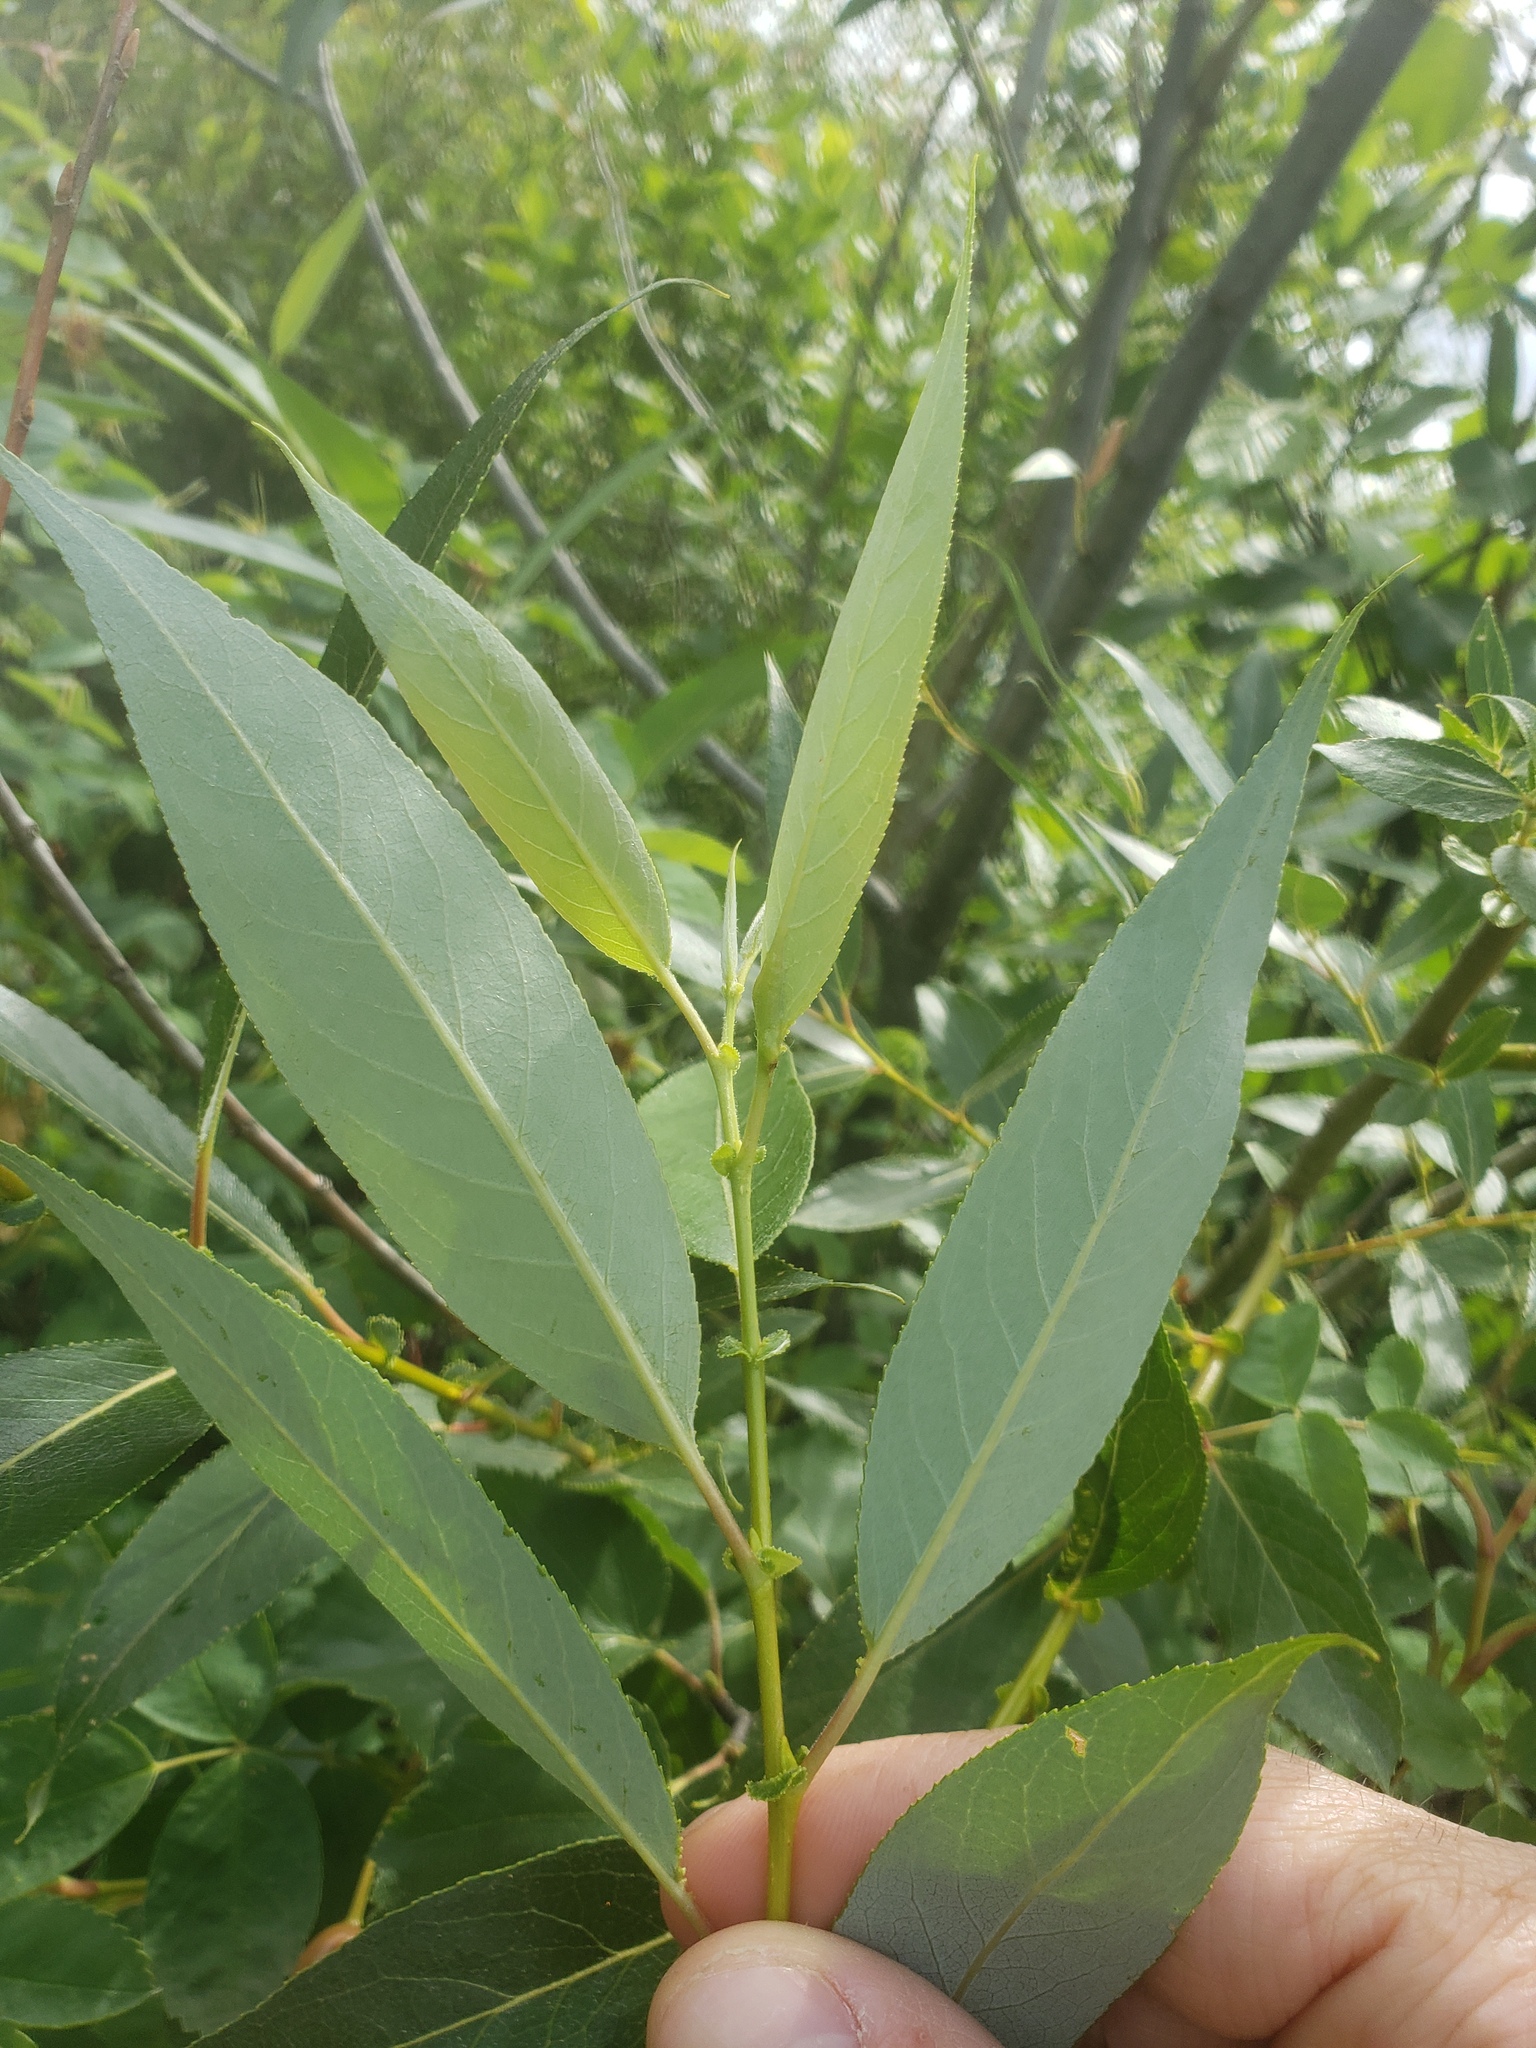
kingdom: Plantae
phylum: Tracheophyta
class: Magnoliopsida
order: Malpighiales
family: Salicaceae
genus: Salix
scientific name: Salix lucida
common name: Shining willow
